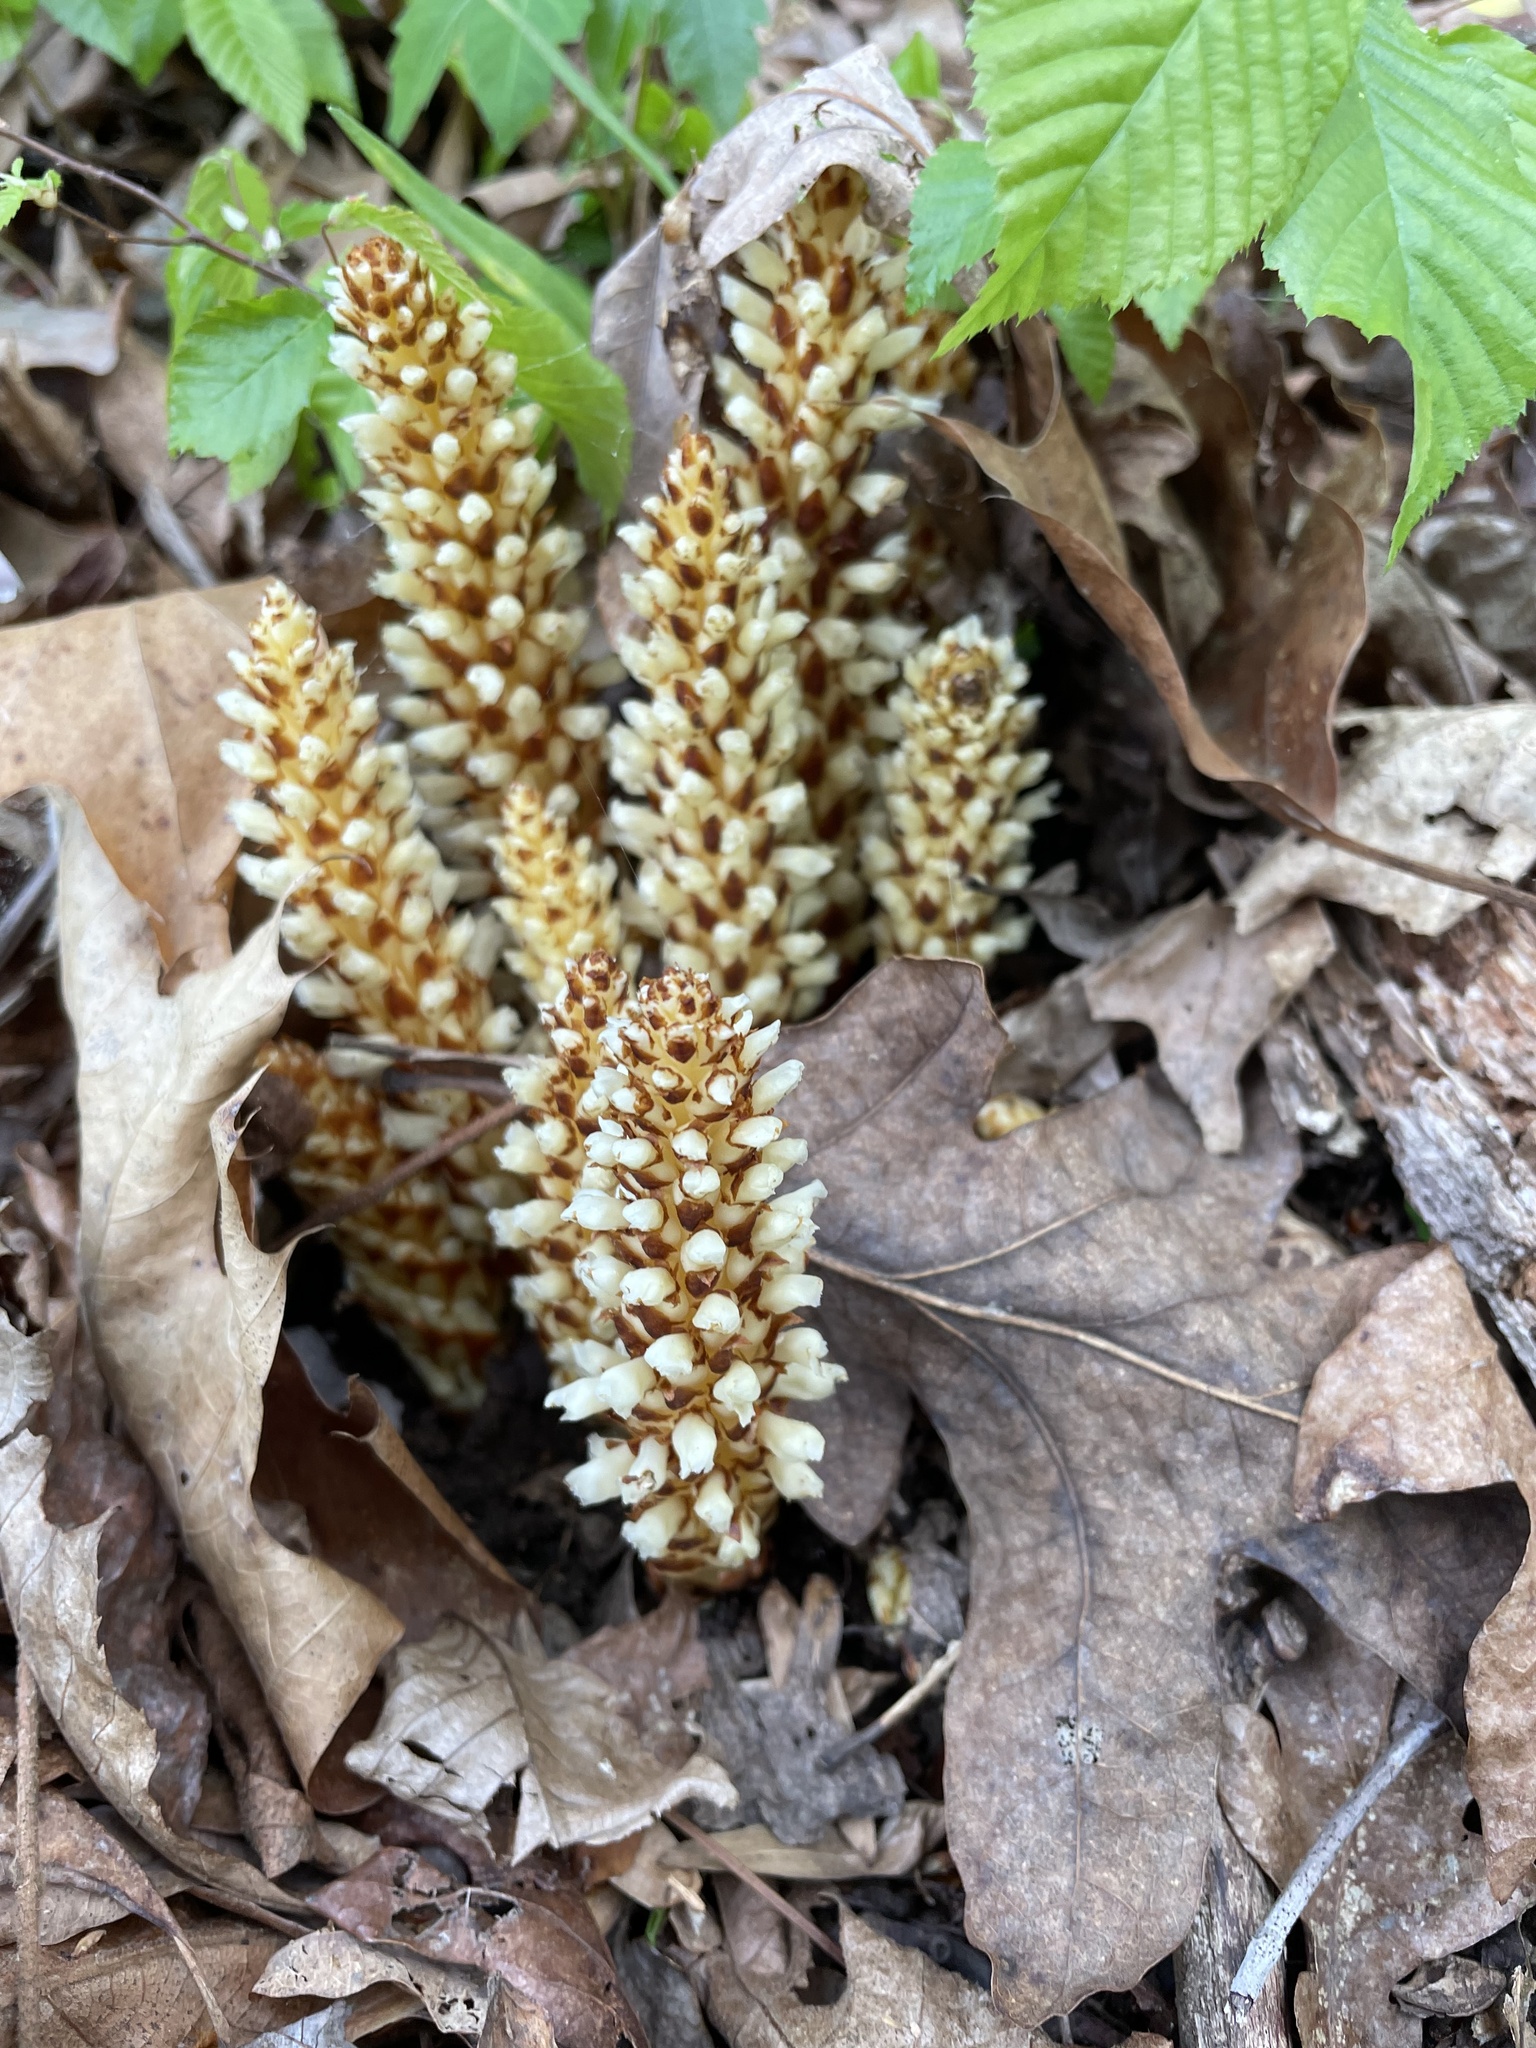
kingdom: Plantae
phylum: Tracheophyta
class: Magnoliopsida
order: Lamiales
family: Orobanchaceae
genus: Conopholis
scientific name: Conopholis americana
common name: American cancer-root
